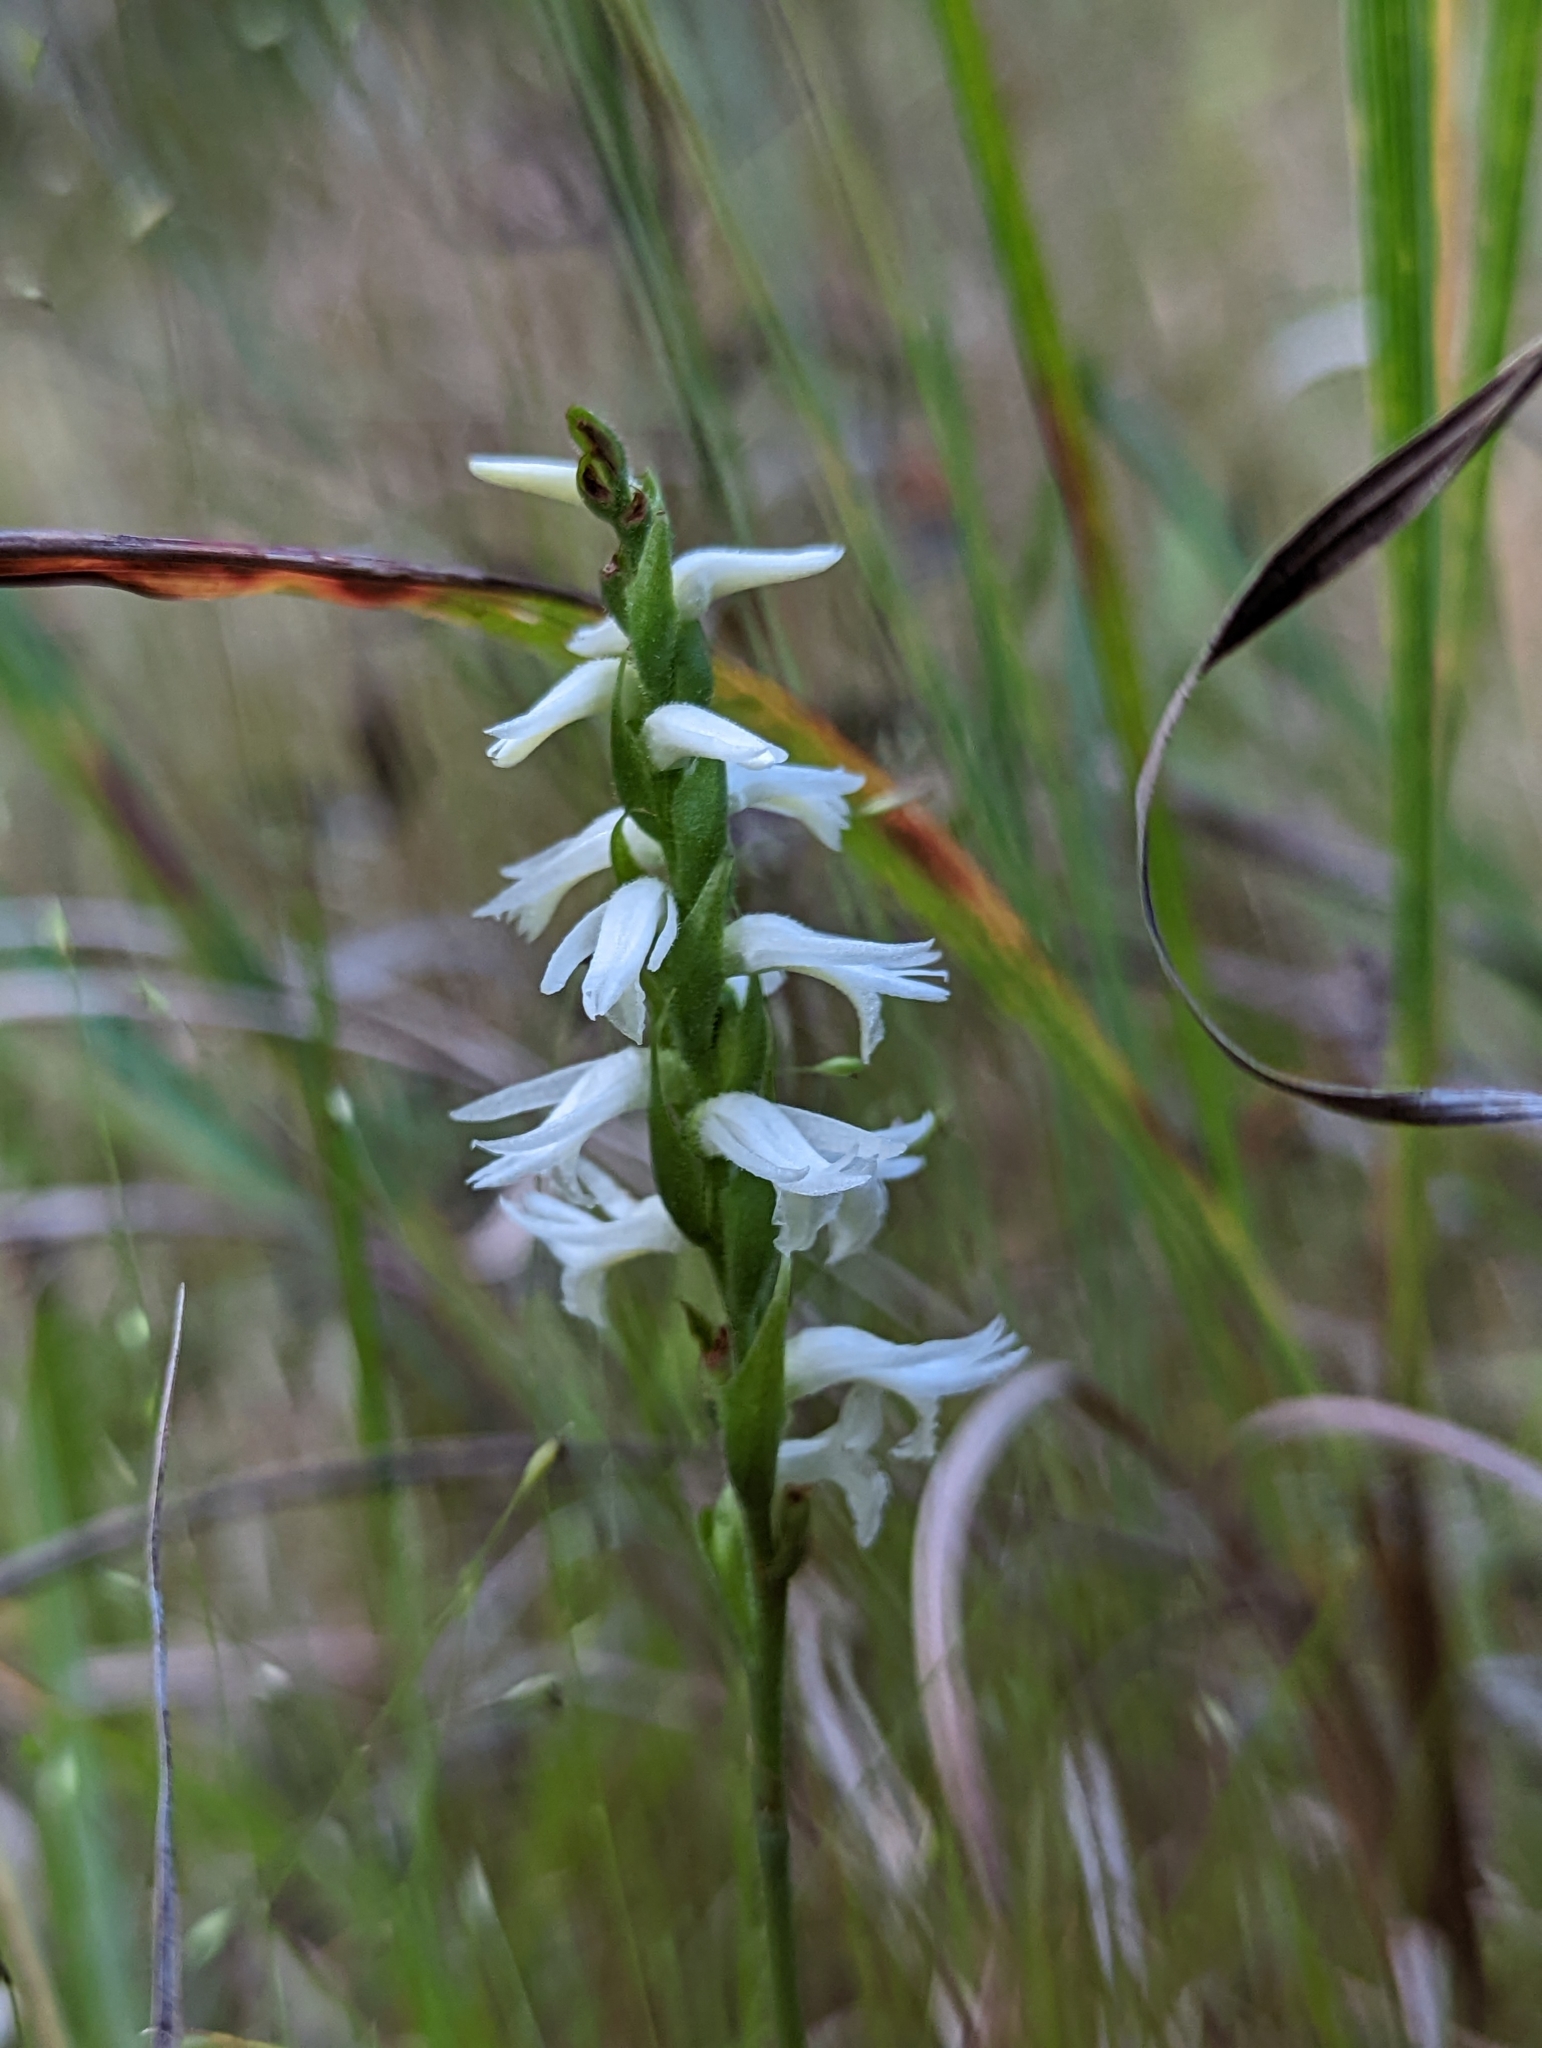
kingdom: Plantae
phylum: Tracheophyta
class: Liliopsida
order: Asparagales
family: Orchidaceae
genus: Spiranthes
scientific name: Spiranthes magnicamporum
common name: Great plains ladies'-tresses
